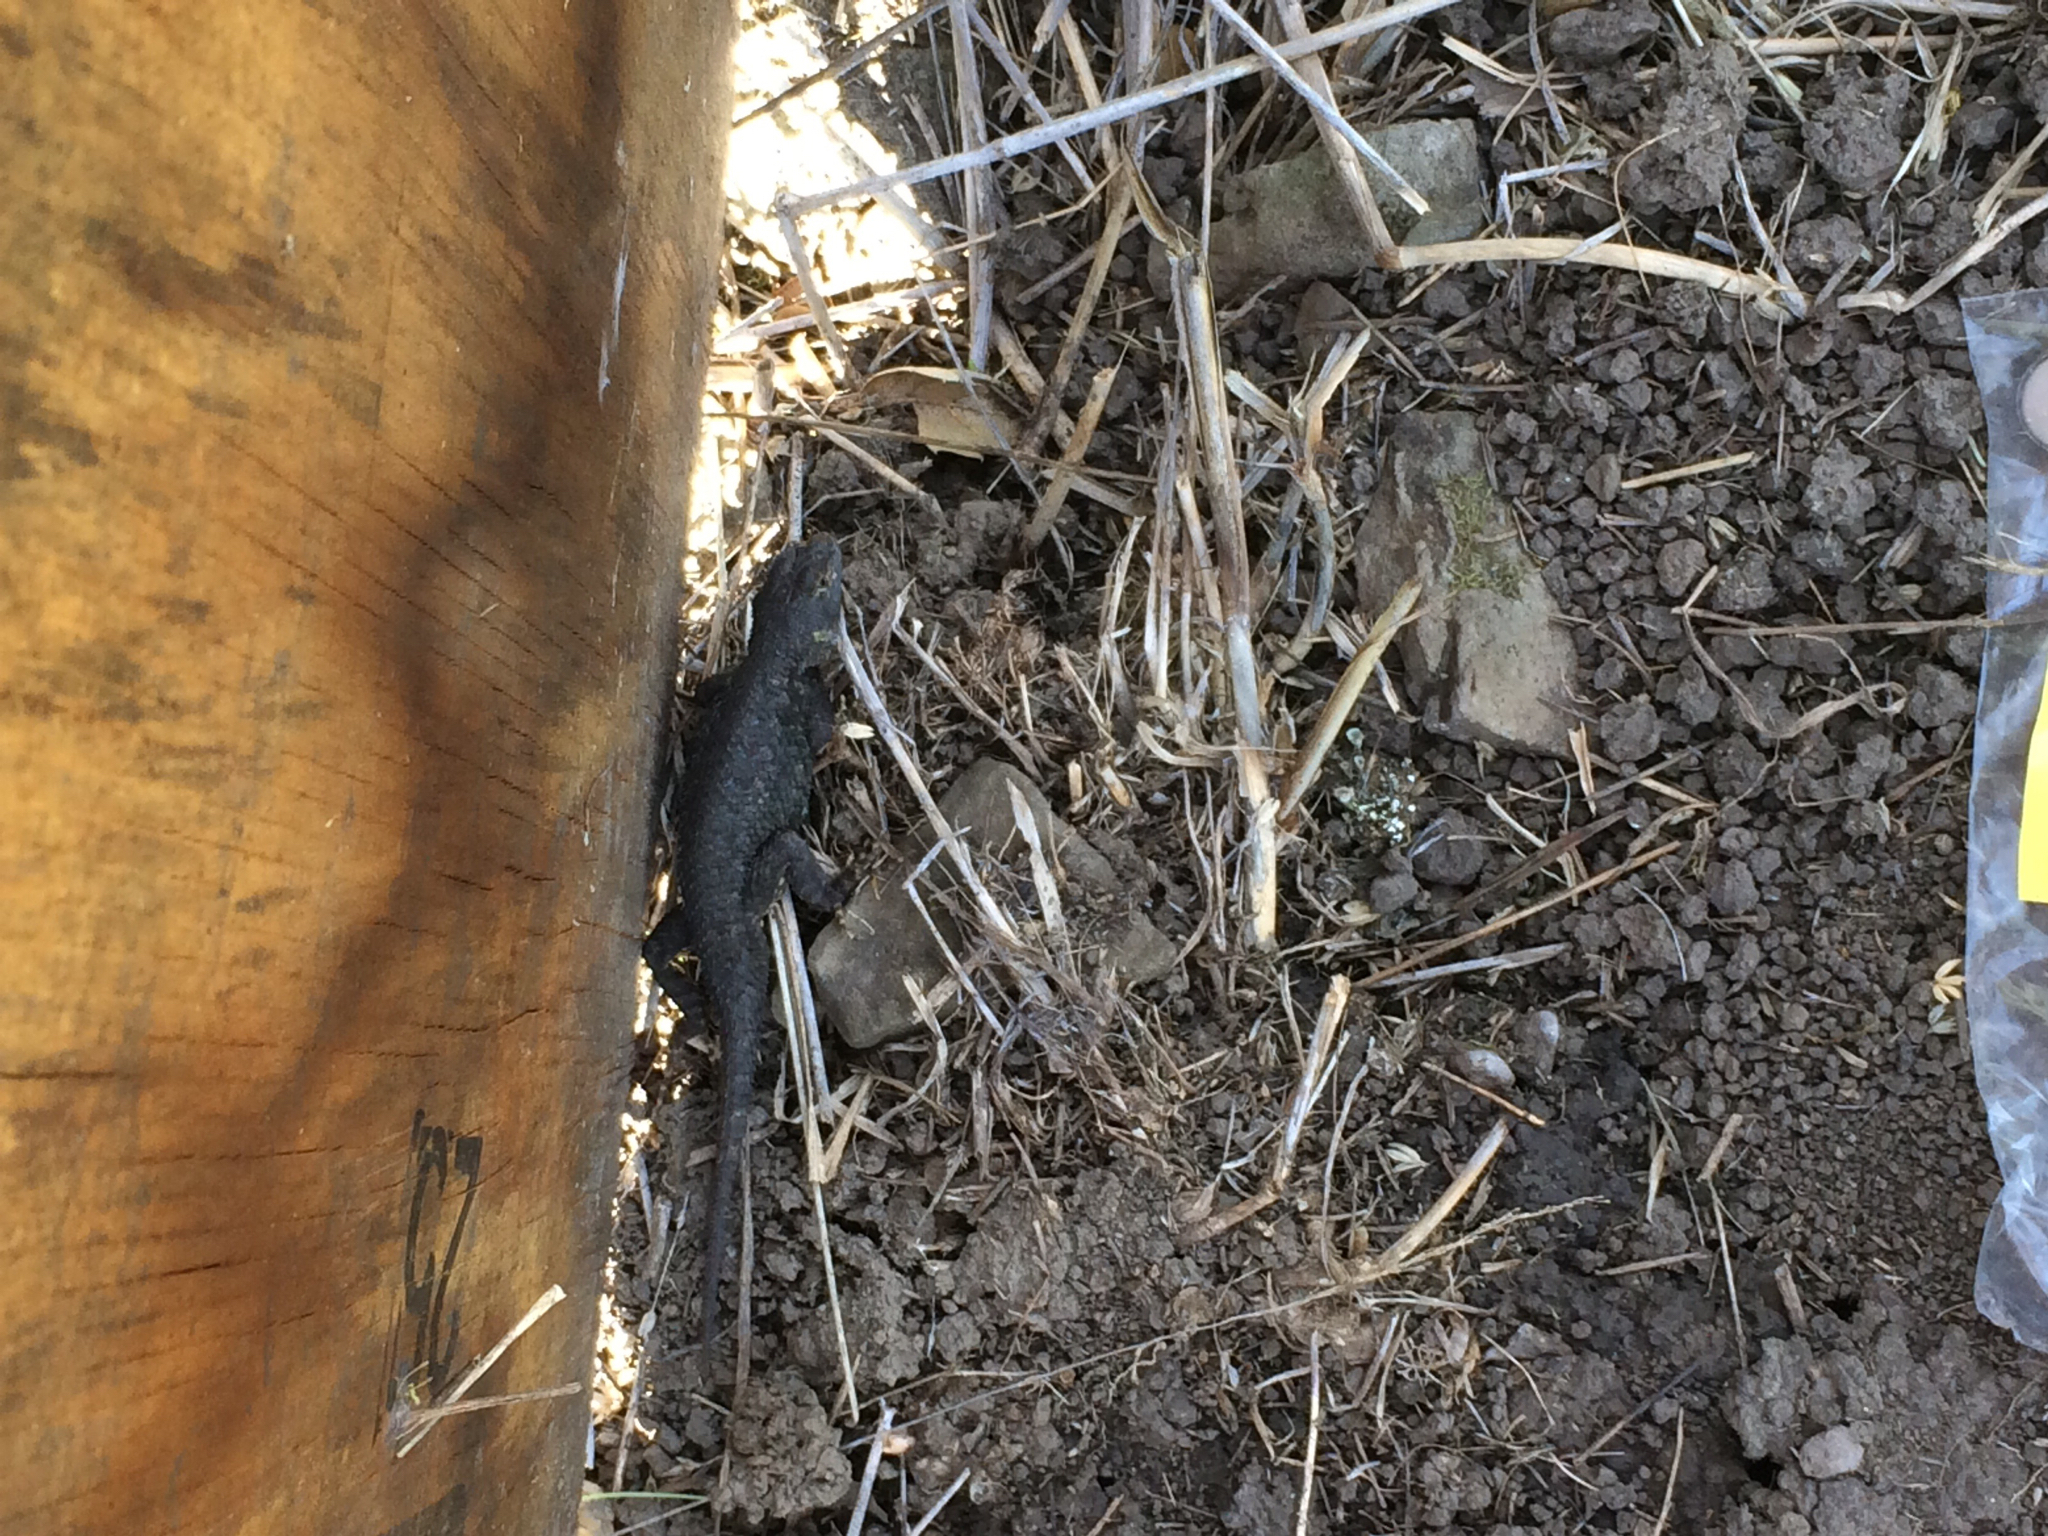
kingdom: Animalia
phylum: Chordata
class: Squamata
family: Phrynosomatidae
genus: Sceloporus
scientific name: Sceloporus occidentalis
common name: Western fence lizard
